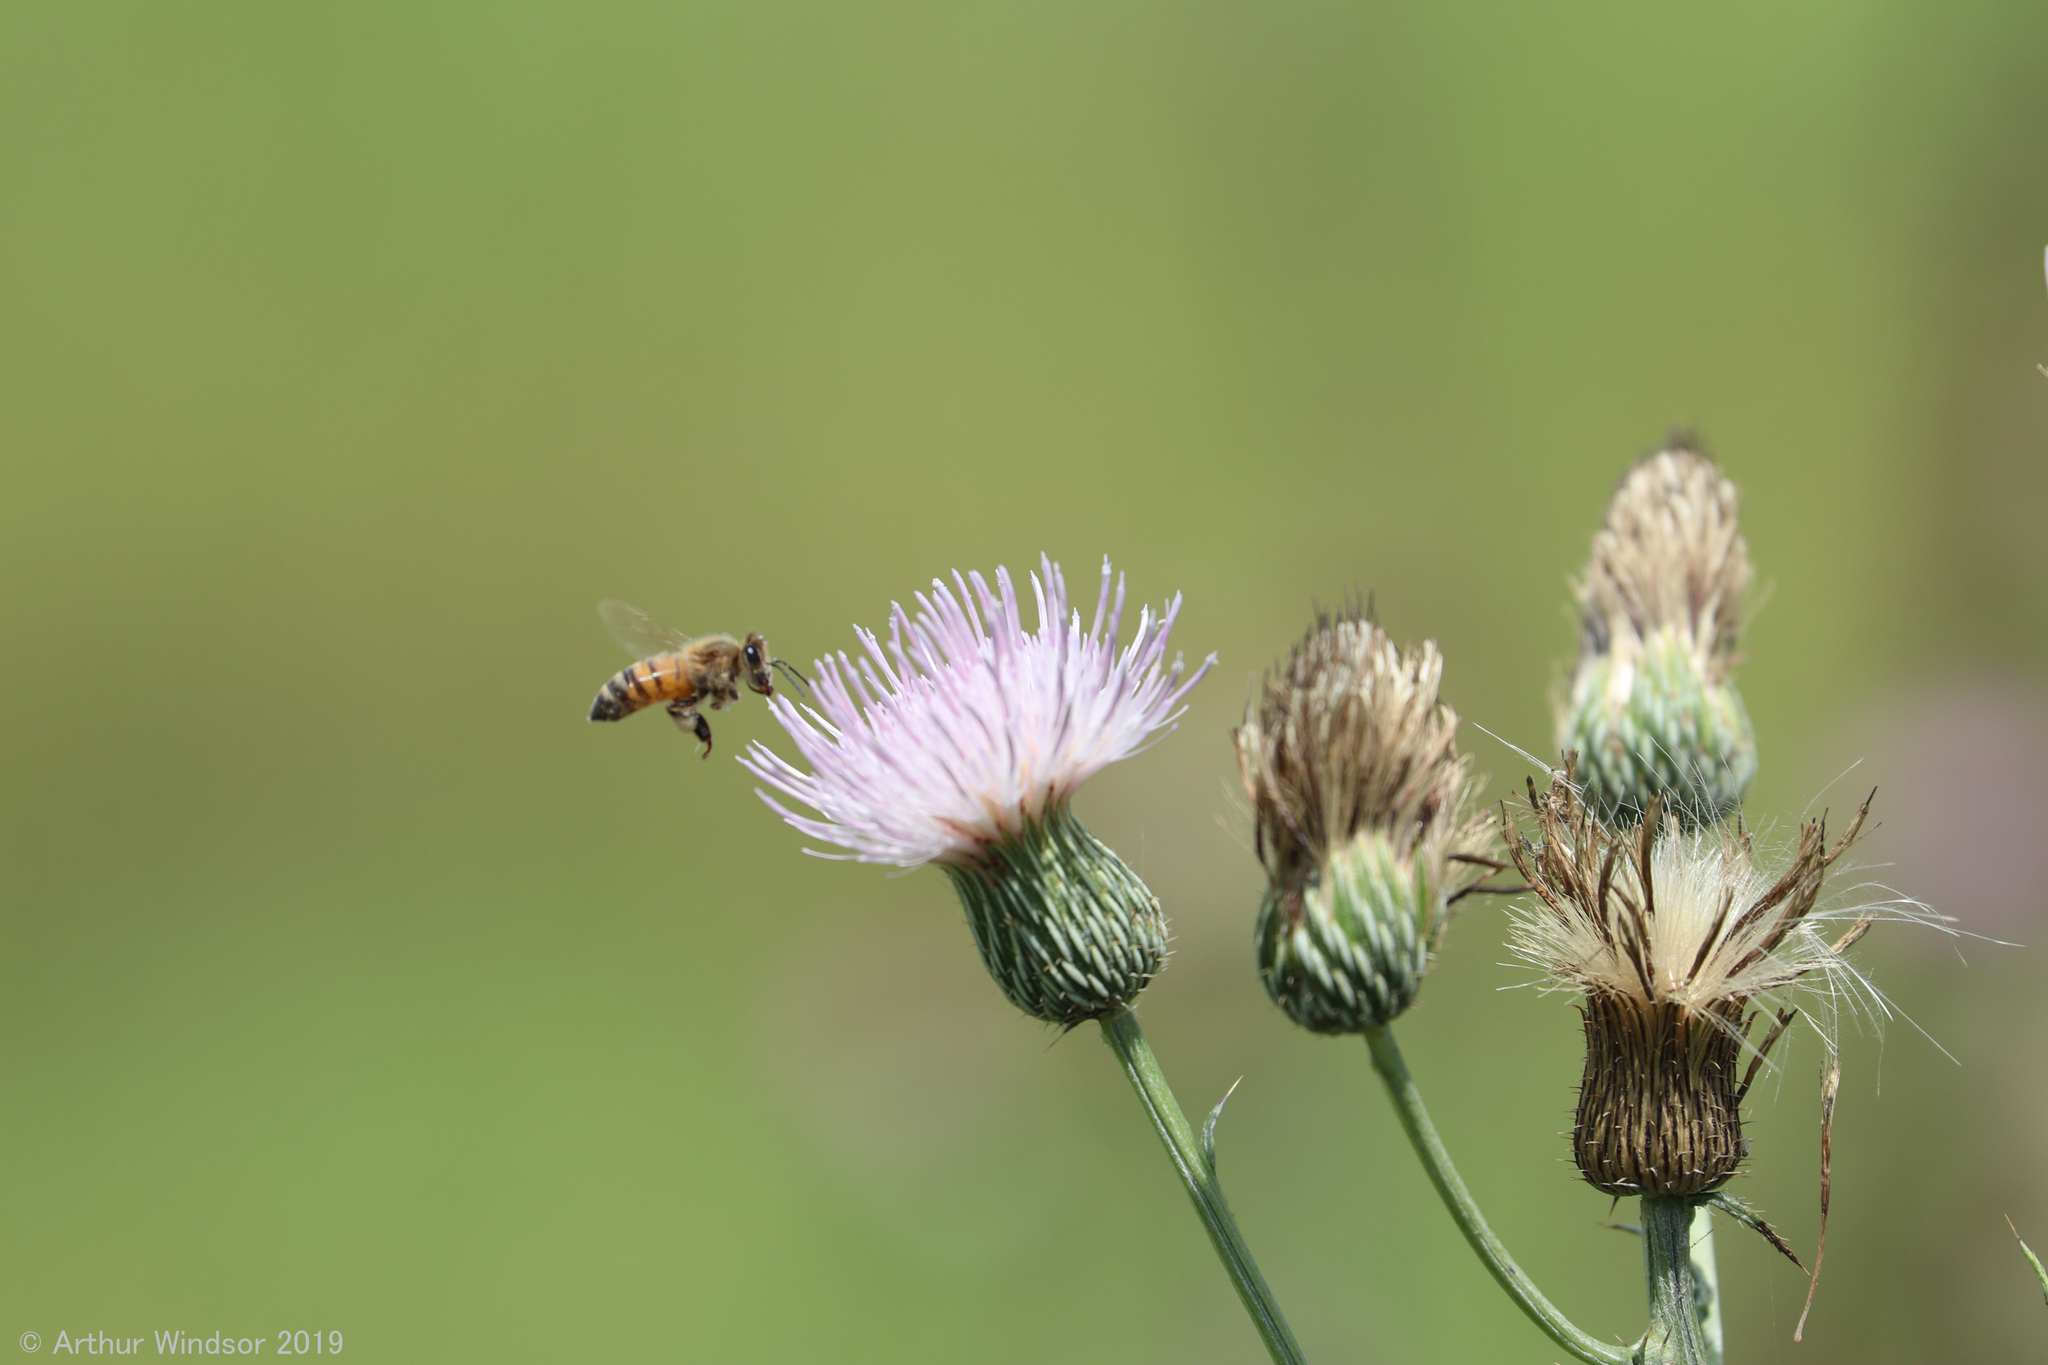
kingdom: Animalia
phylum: Arthropoda
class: Insecta
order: Hymenoptera
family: Apidae
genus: Apis
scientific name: Apis mellifera
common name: Honey bee
